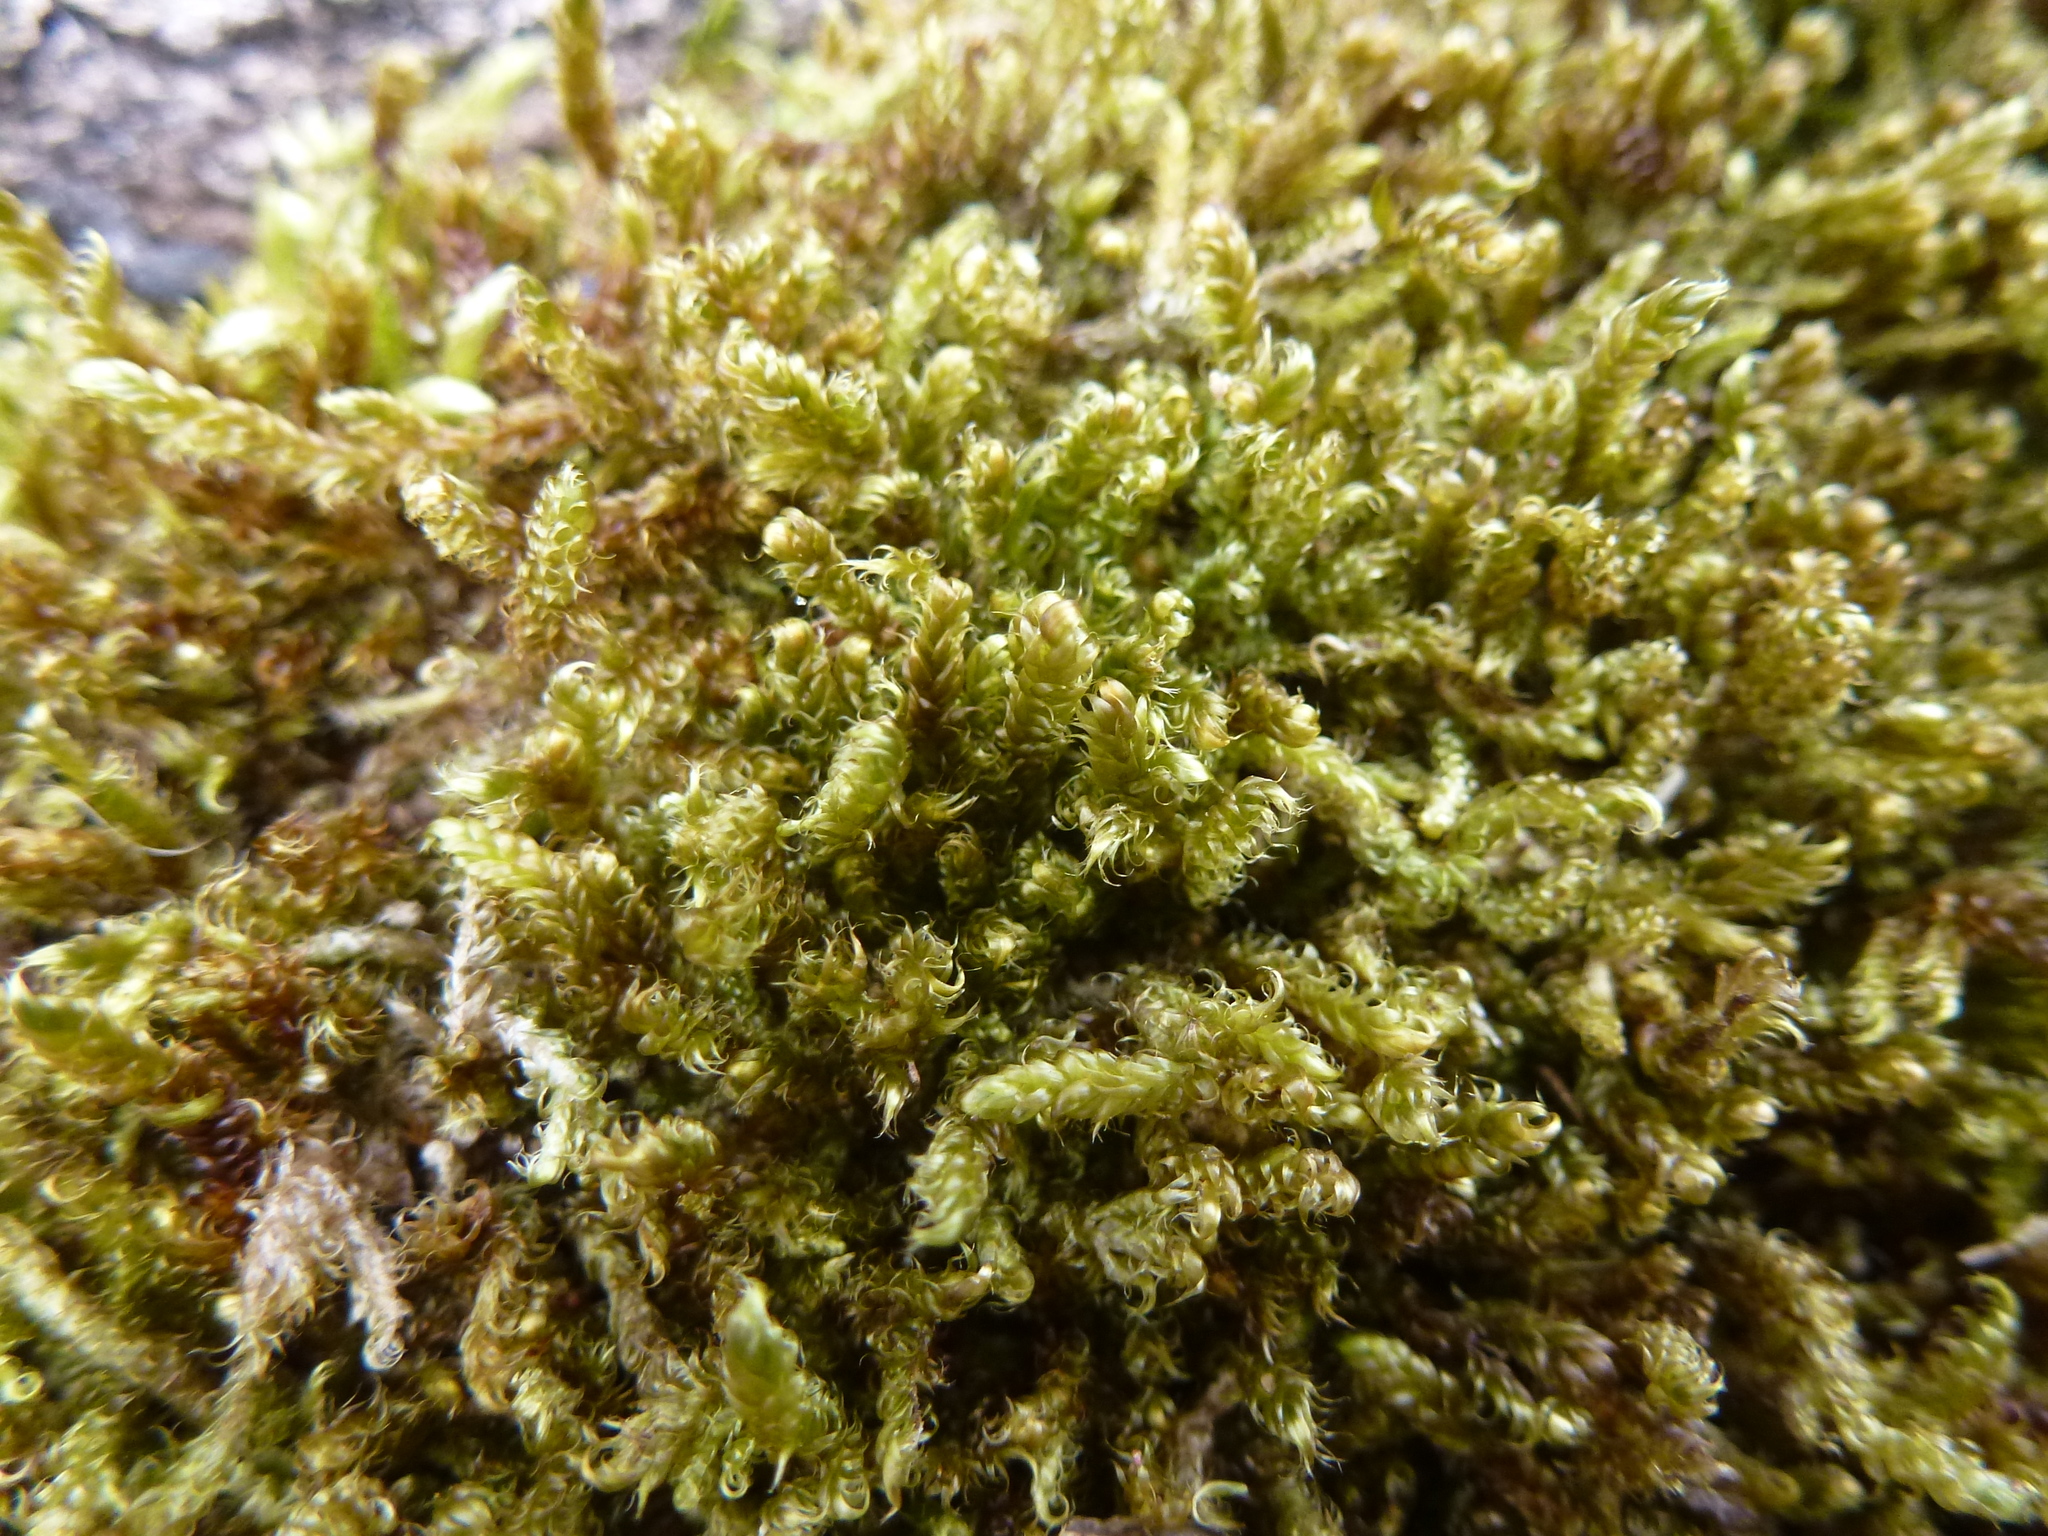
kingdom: Plantae
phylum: Bryophyta
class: Bryopsida
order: Hypnales
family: Hypnaceae
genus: Hypnum
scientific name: Hypnum cupressiforme
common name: Cypress-leaved plait-moss
